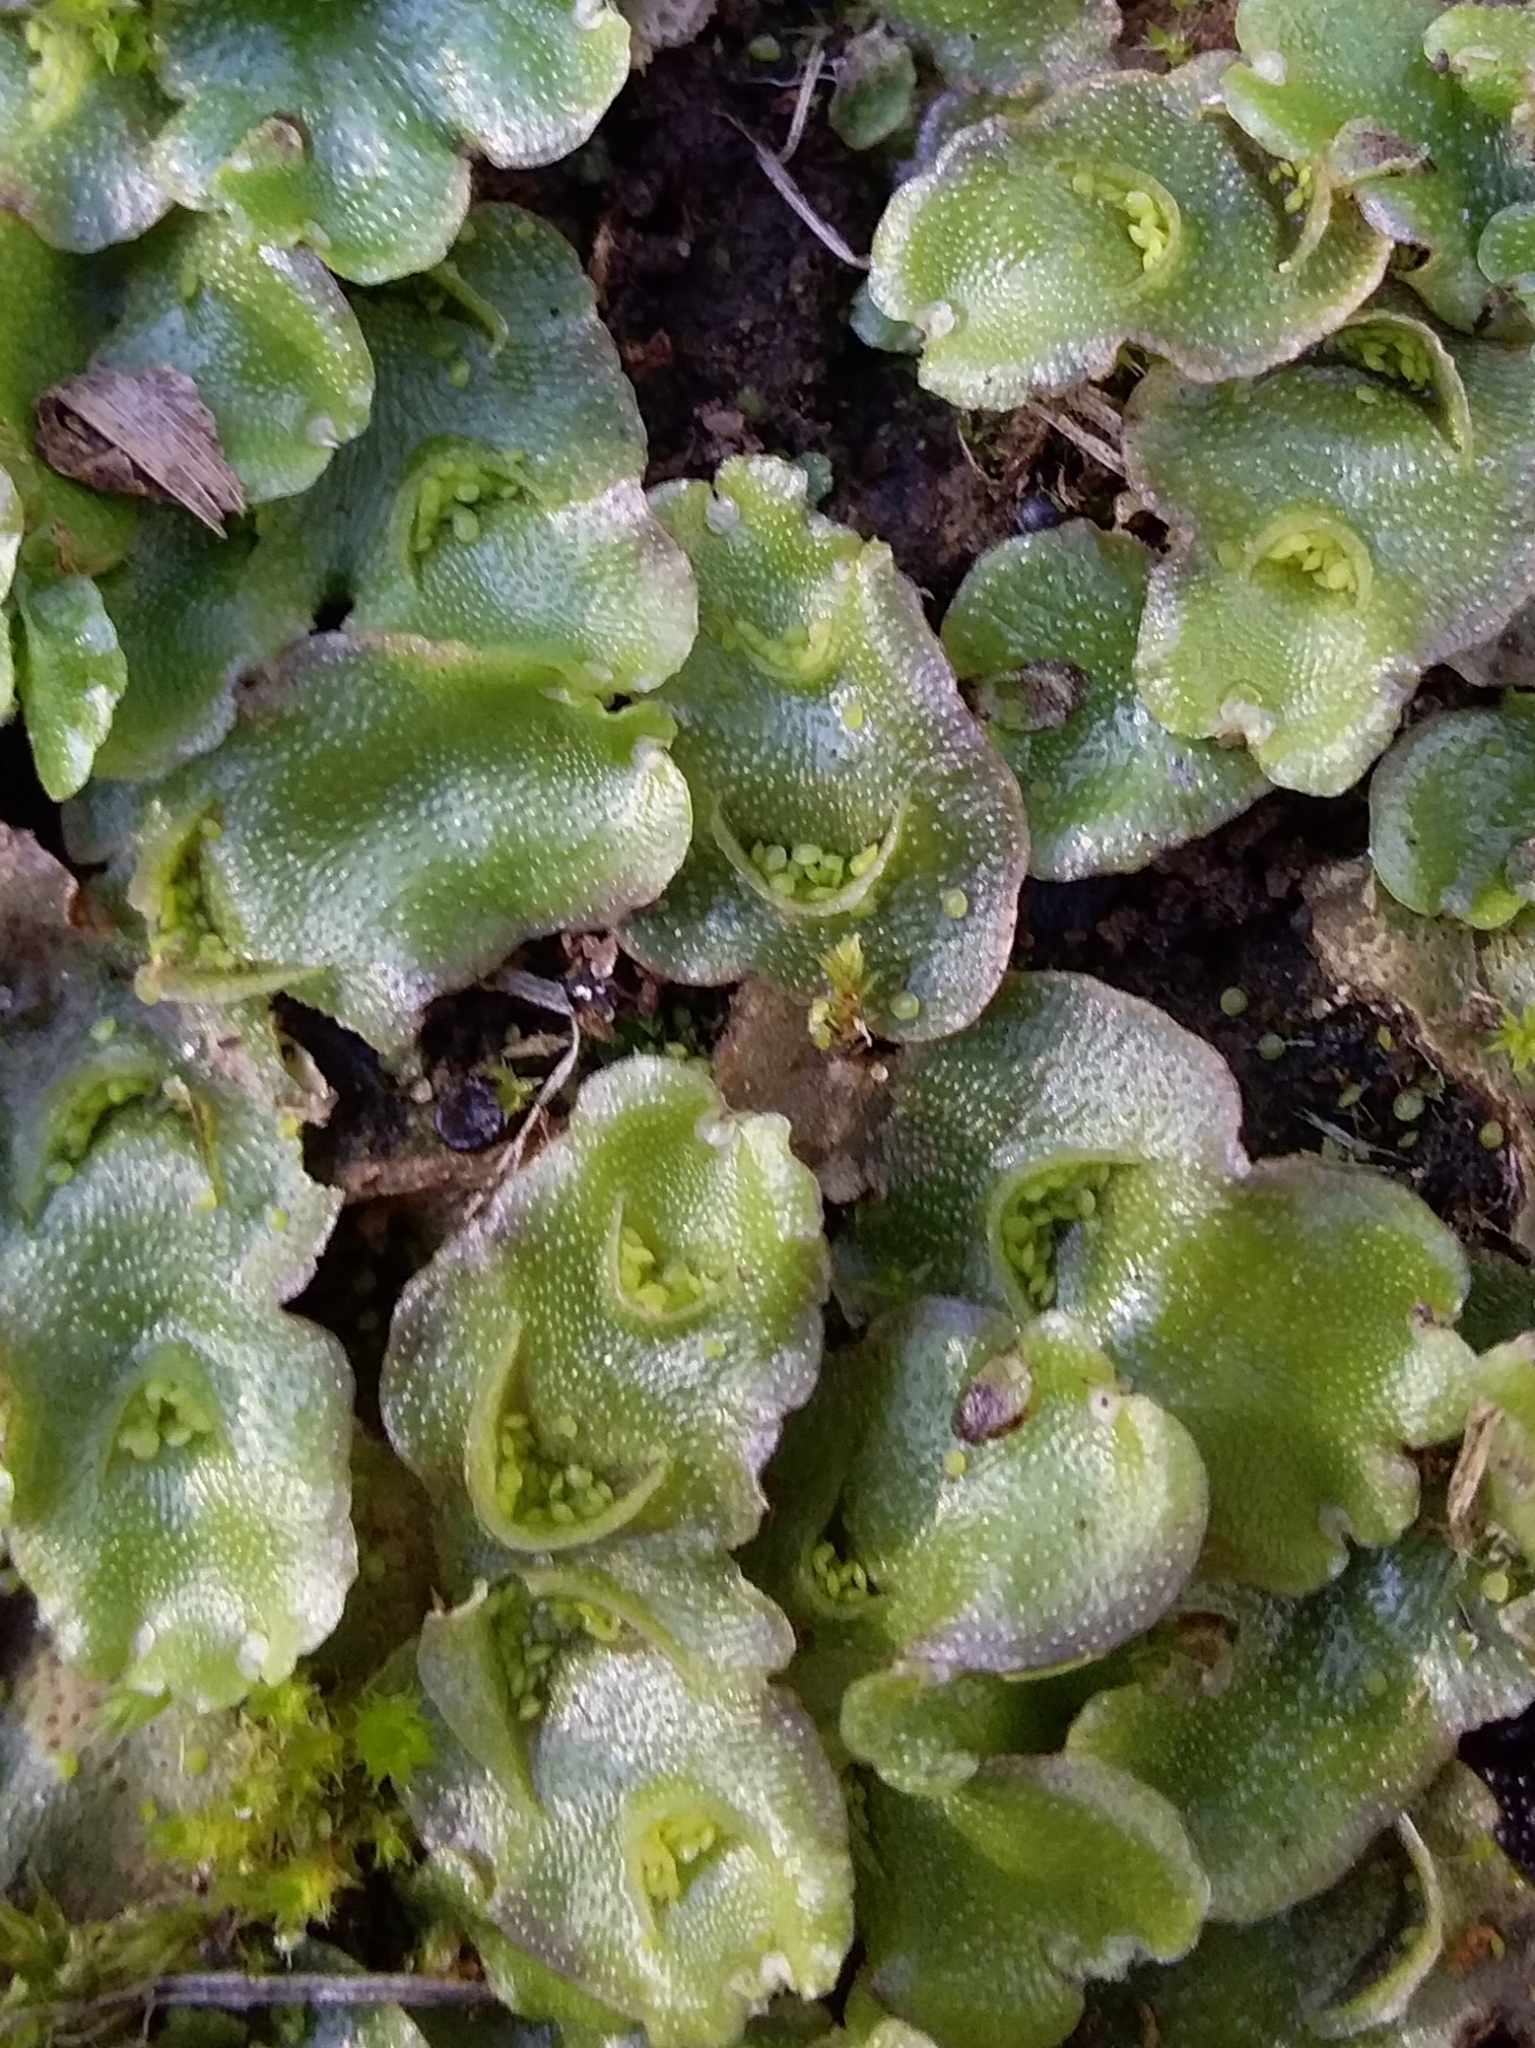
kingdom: Plantae
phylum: Marchantiophyta
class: Marchantiopsida
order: Lunulariales
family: Lunulariaceae
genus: Lunularia
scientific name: Lunularia cruciata
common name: Crescent-cup liverwort
